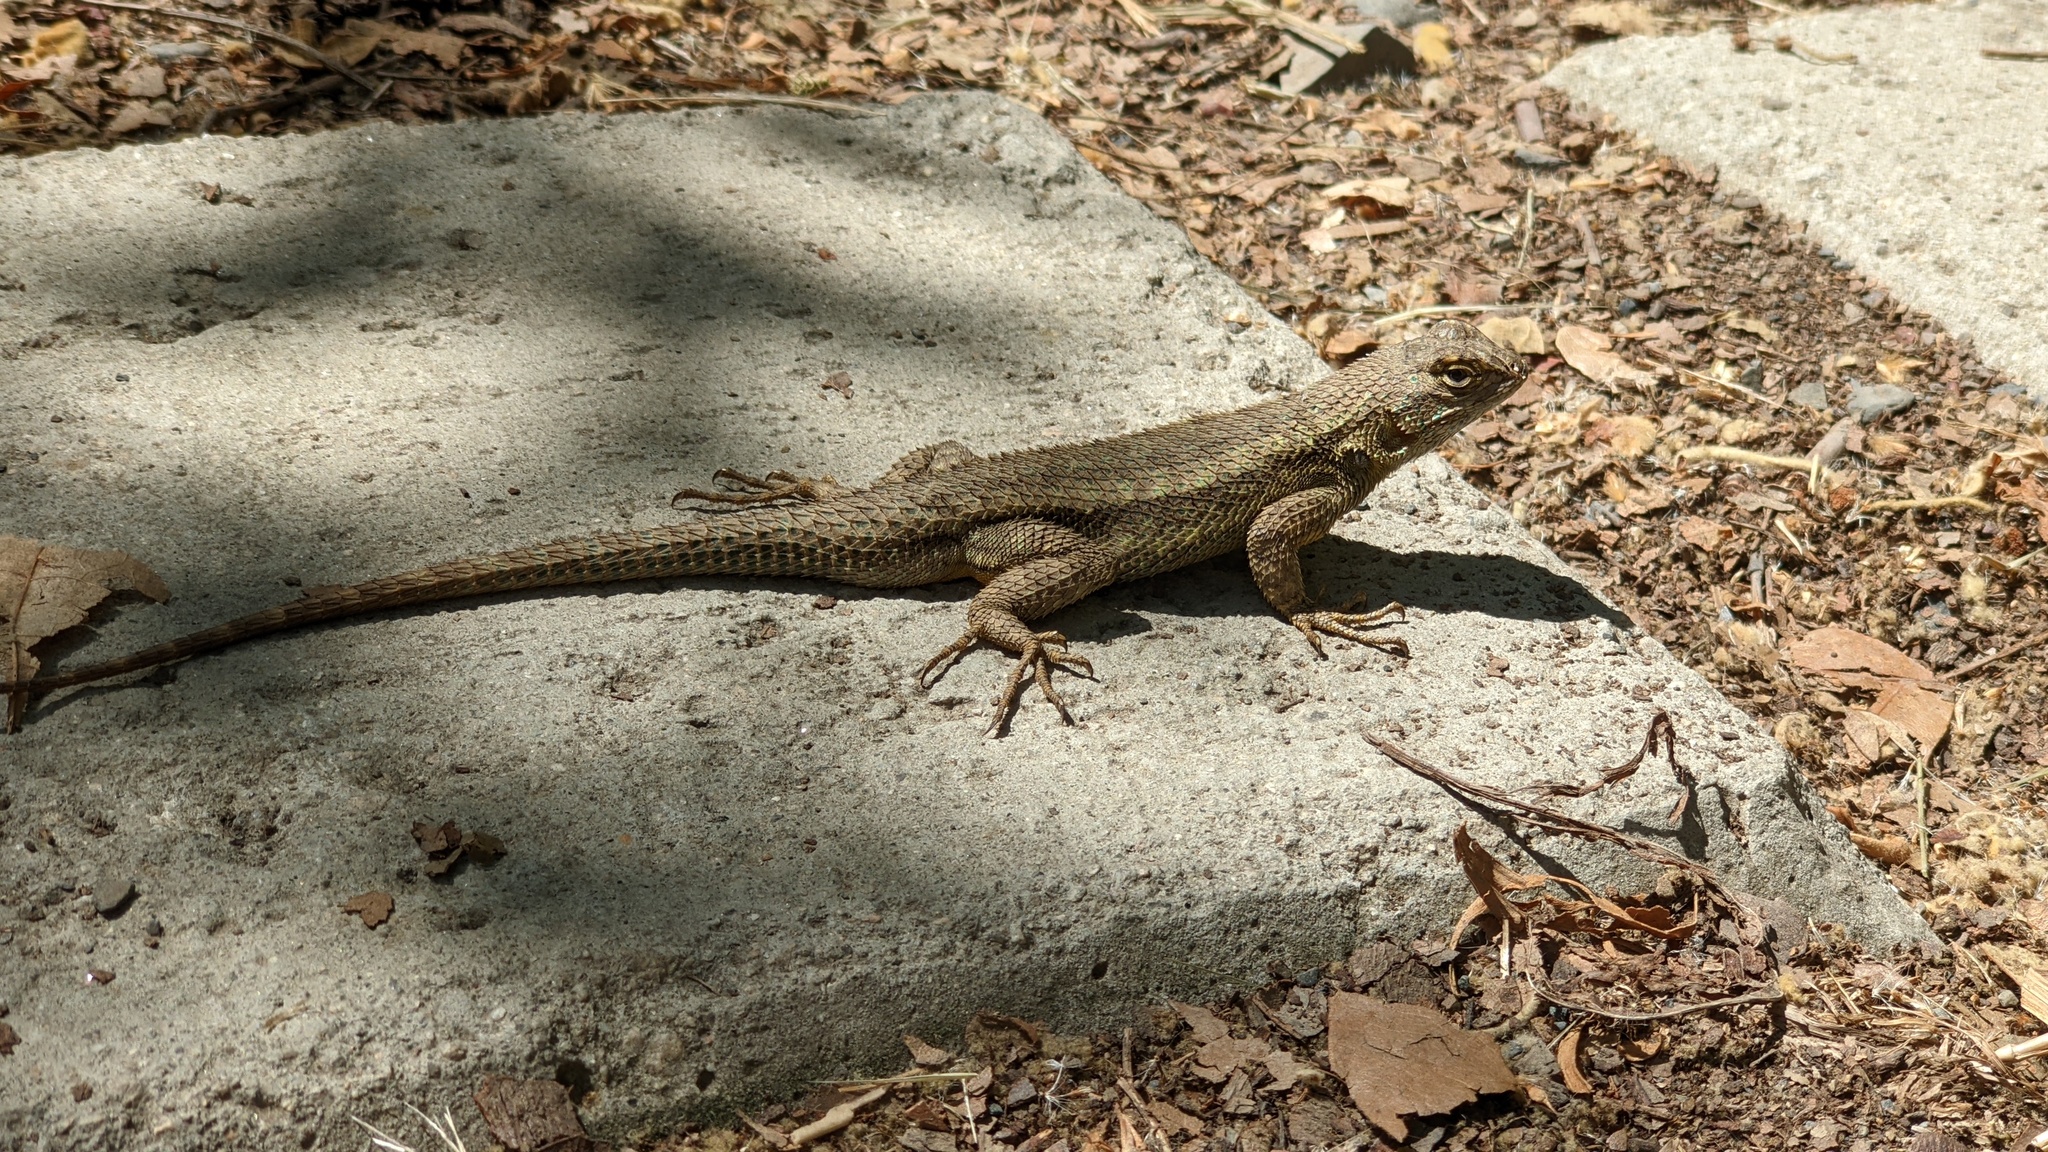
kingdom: Animalia
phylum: Chordata
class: Squamata
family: Phrynosomatidae
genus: Sceloporus
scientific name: Sceloporus occidentalis
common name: Western fence lizard
